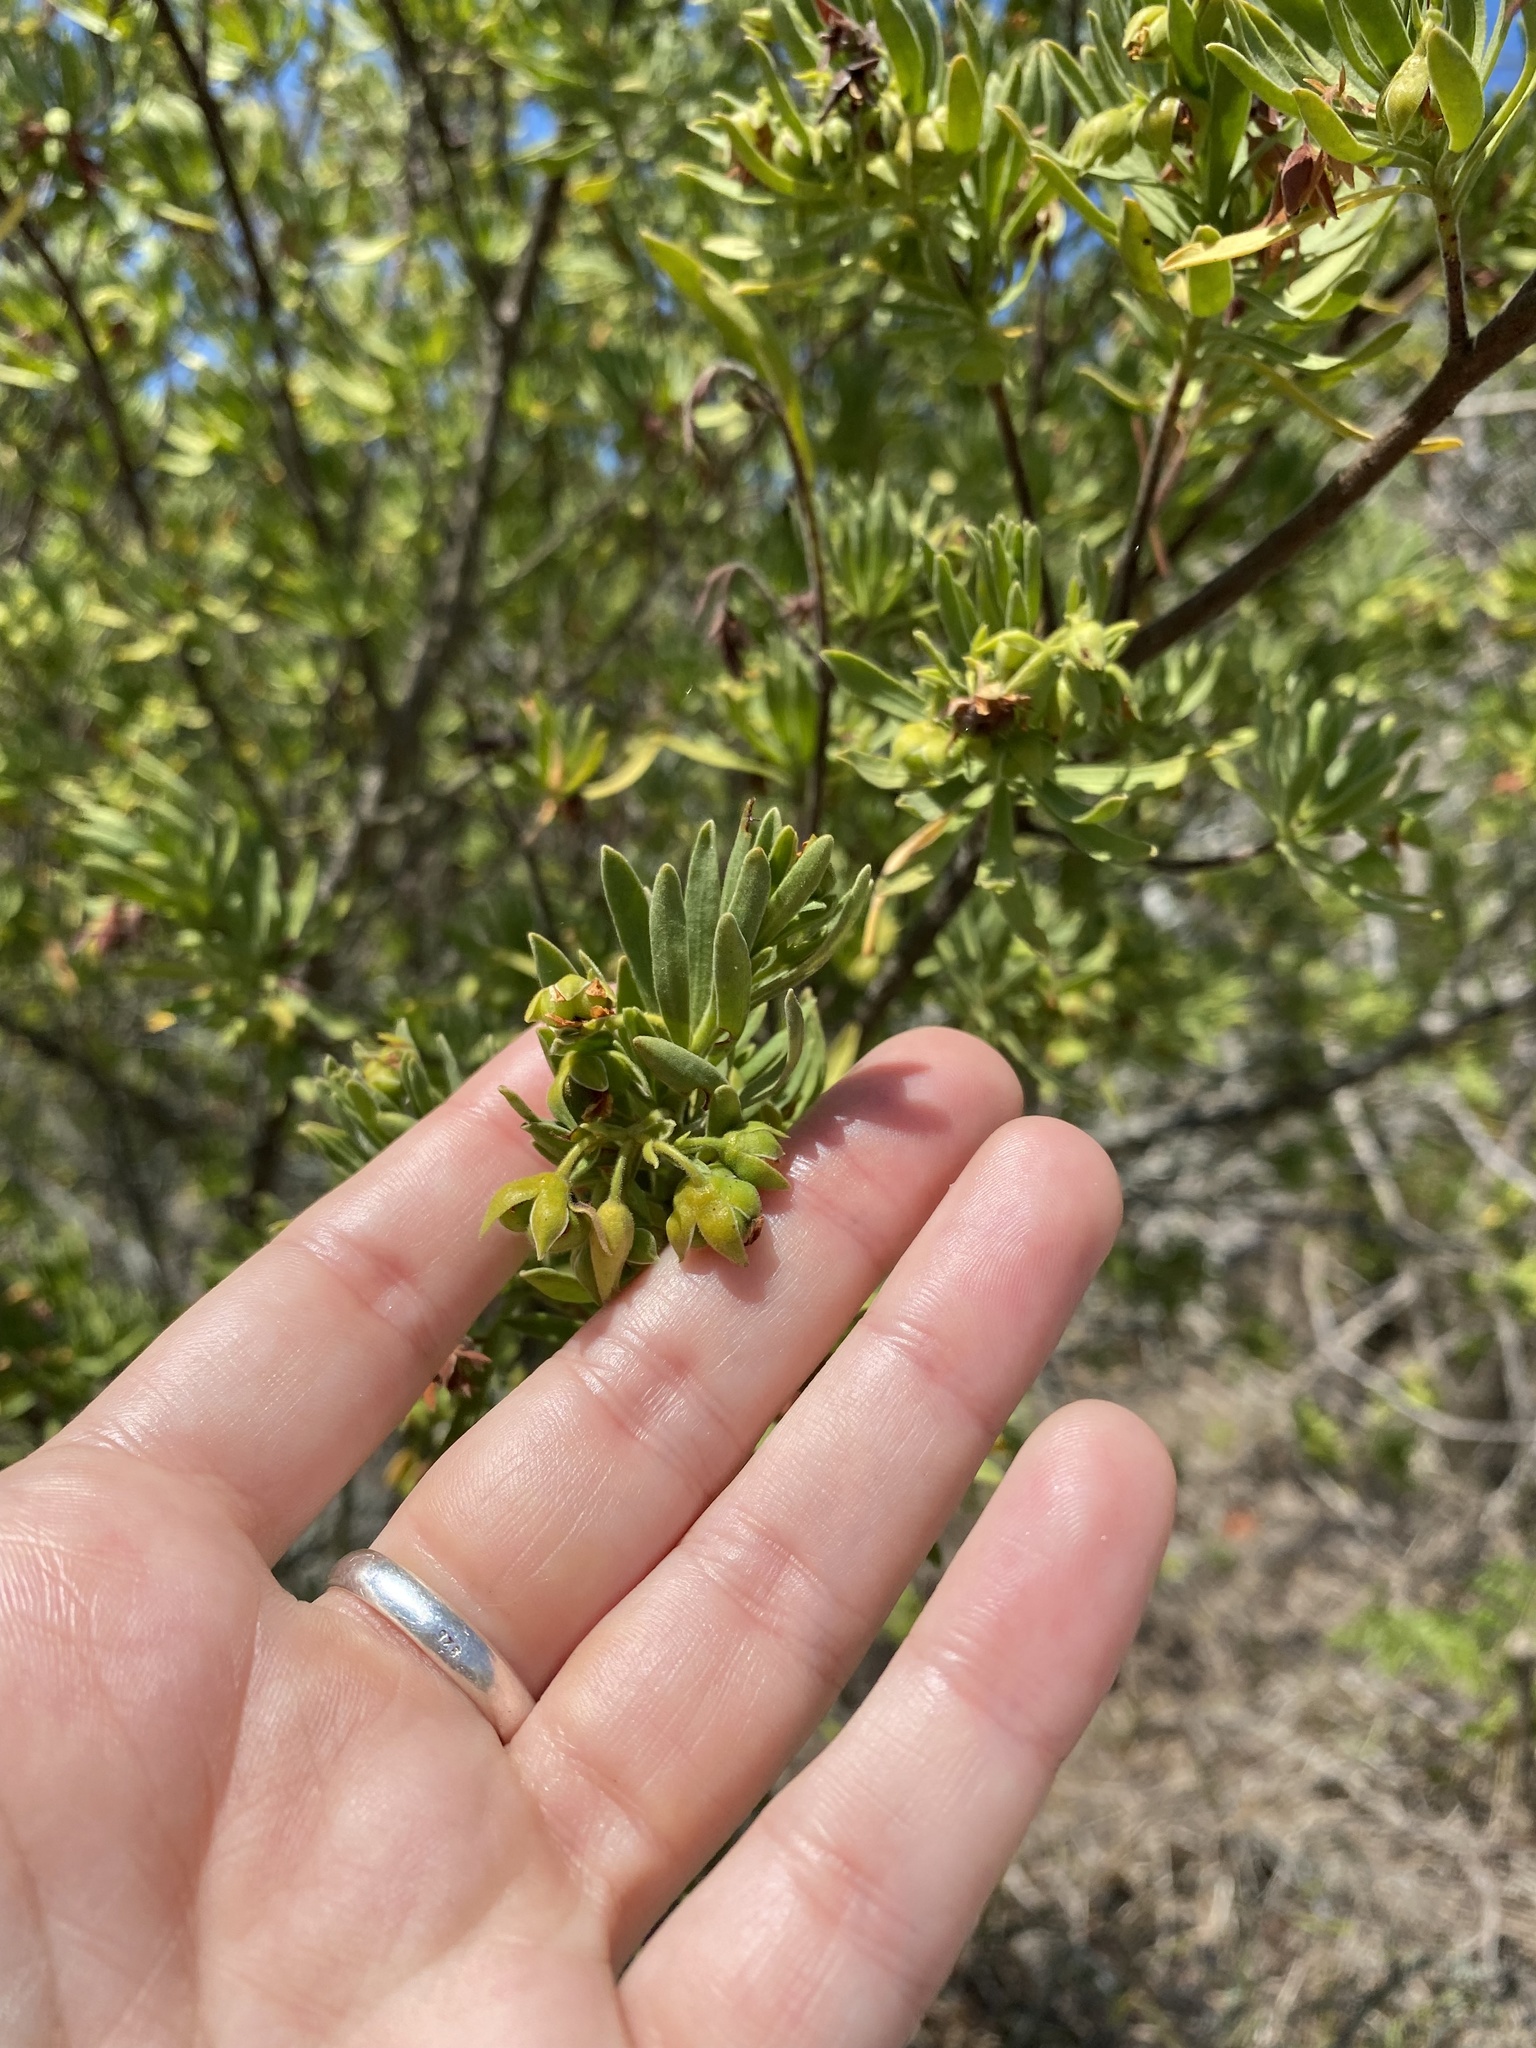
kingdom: Plantae
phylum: Tracheophyta
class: Magnoliopsida
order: Fabales
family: Surianaceae
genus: Suriana
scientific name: Suriana maritima
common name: Bay-cedar
